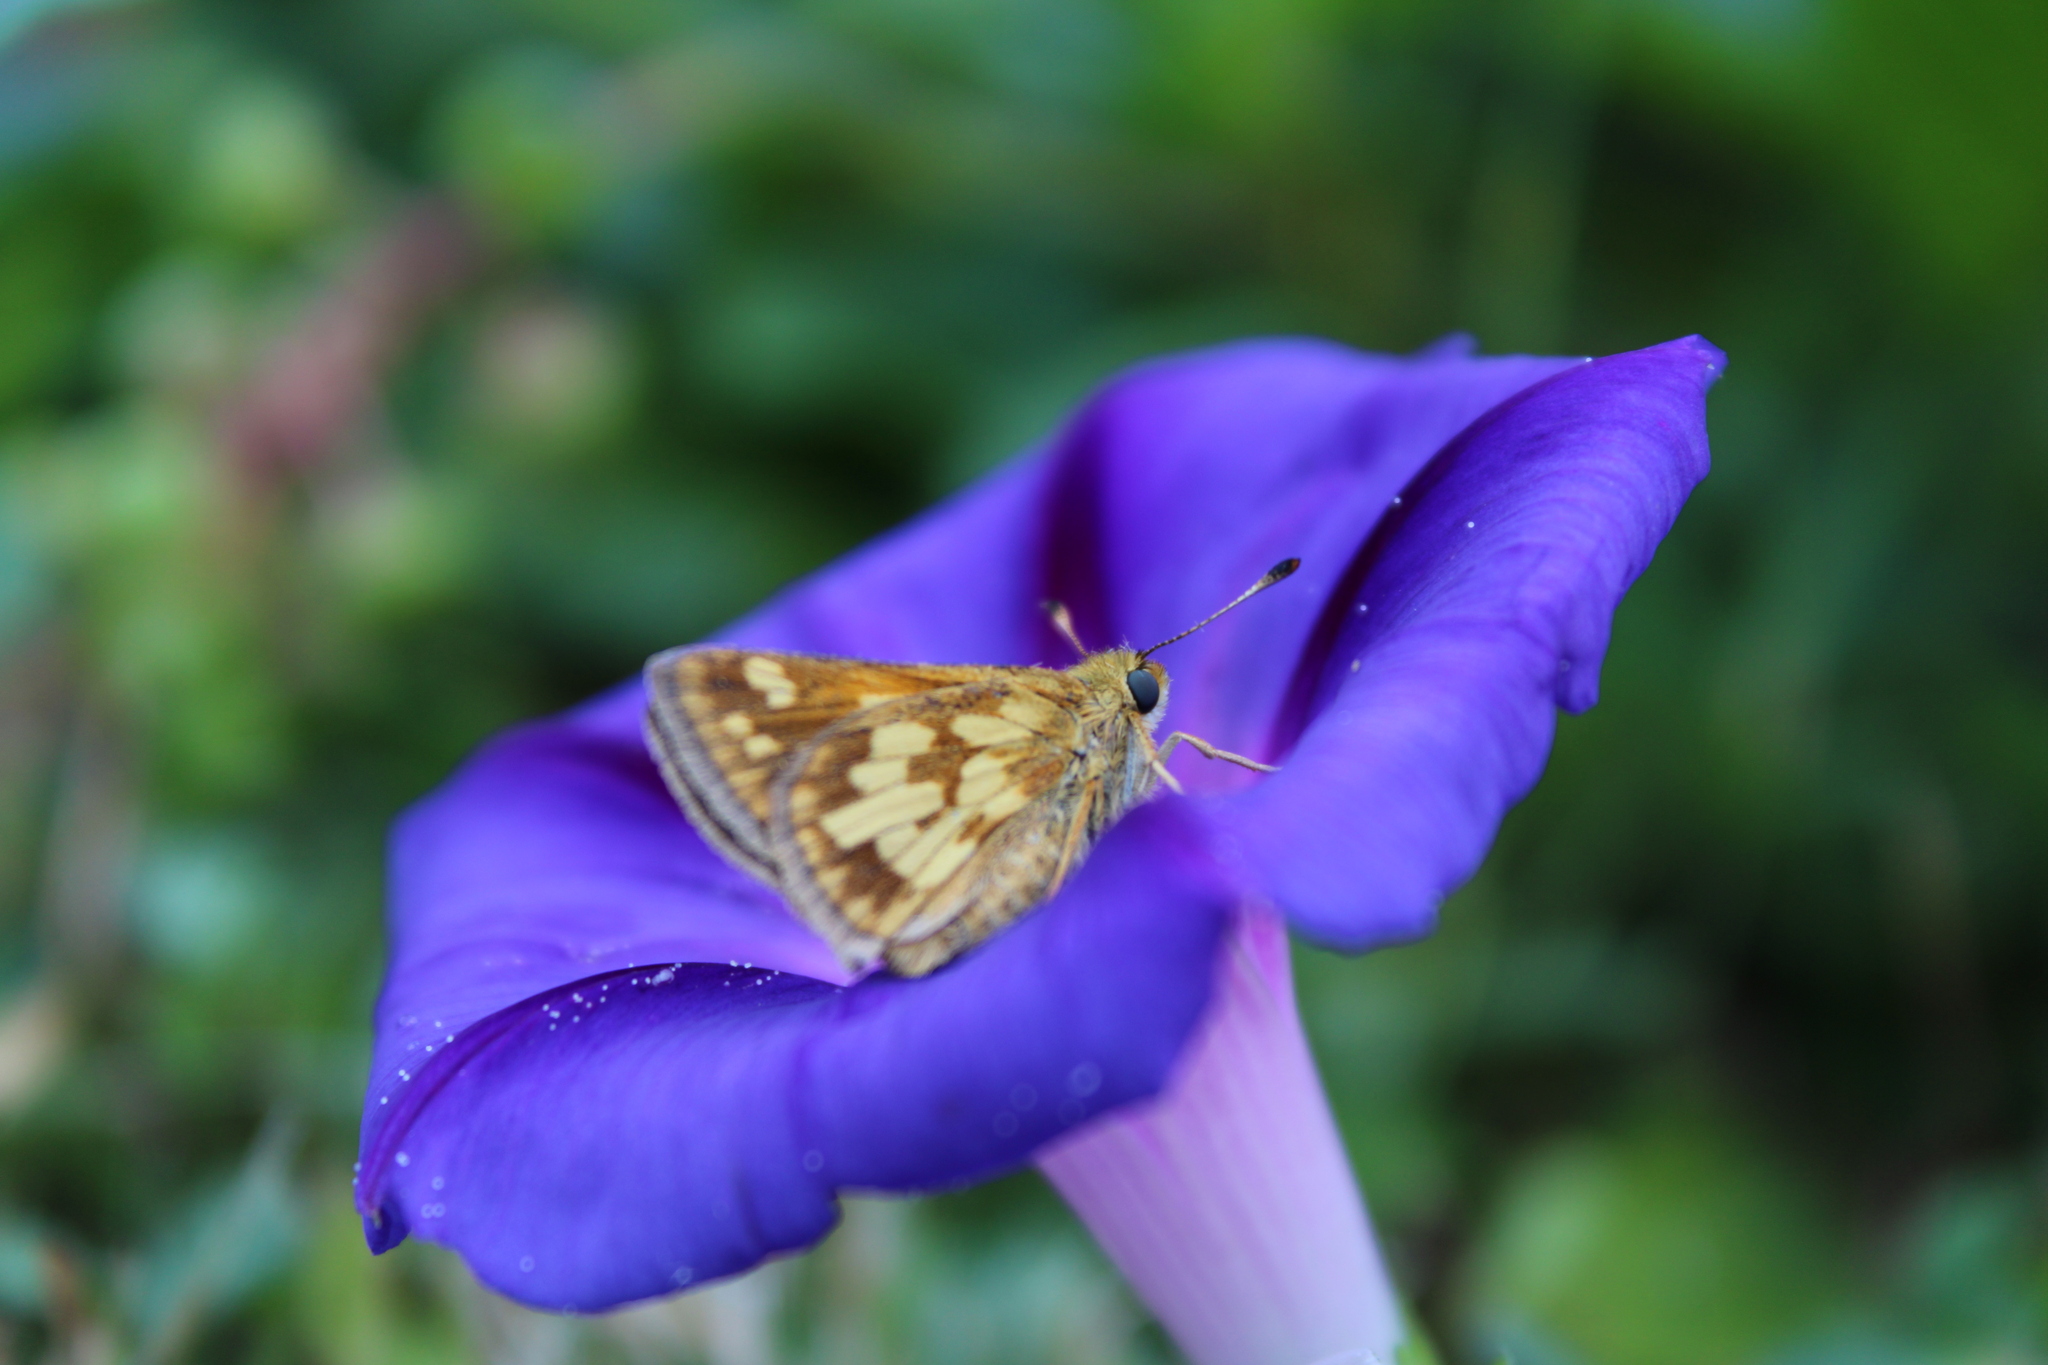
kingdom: Animalia
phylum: Arthropoda
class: Insecta
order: Lepidoptera
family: Hesperiidae
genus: Polites
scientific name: Polites coras
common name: Peck's skipper
